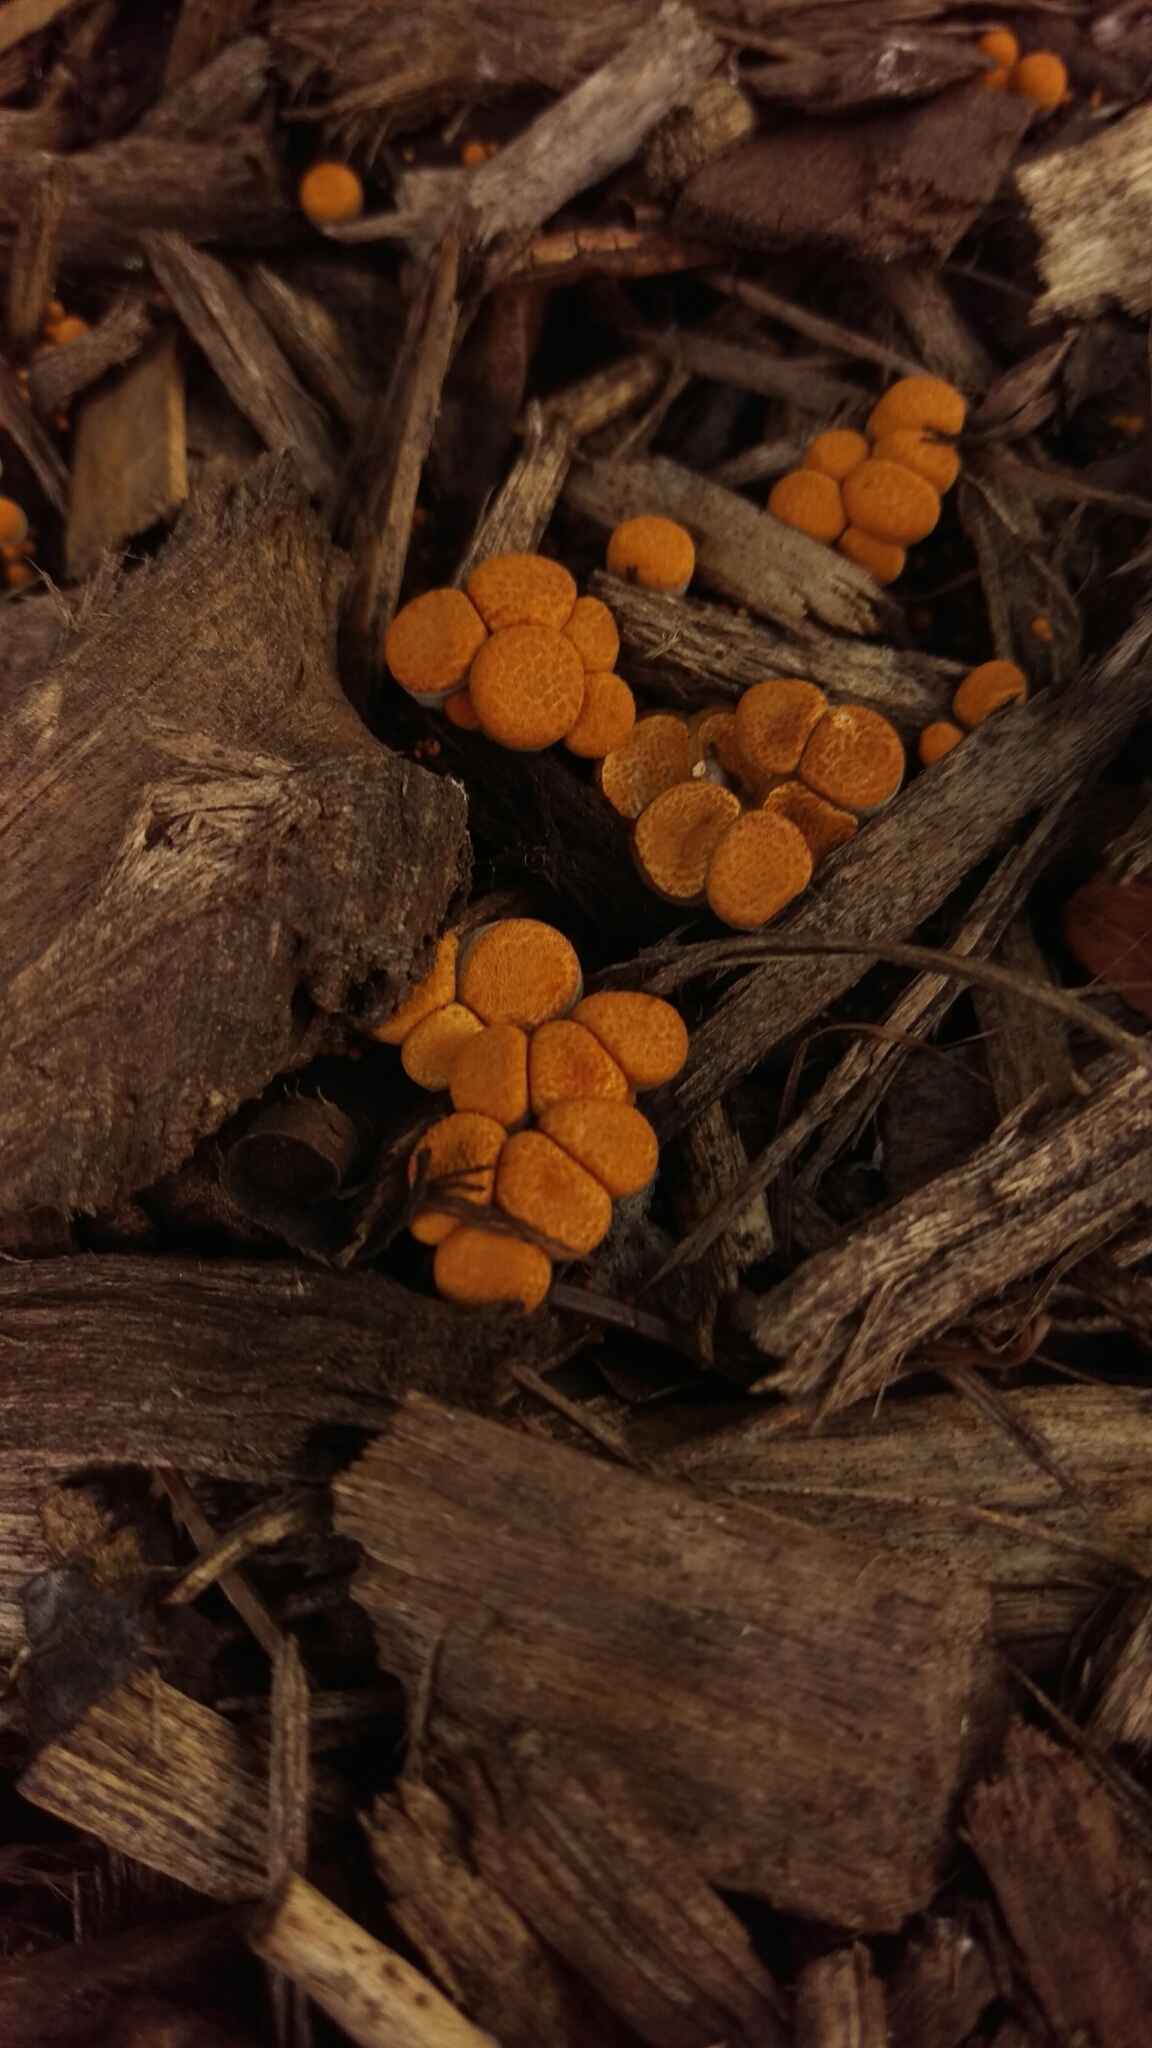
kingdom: Fungi
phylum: Basidiomycota
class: Agaricomycetes
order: Agaricales
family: Nidulariaceae
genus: Crucibulum
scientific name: Crucibulum laeve
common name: Common bird's nest
